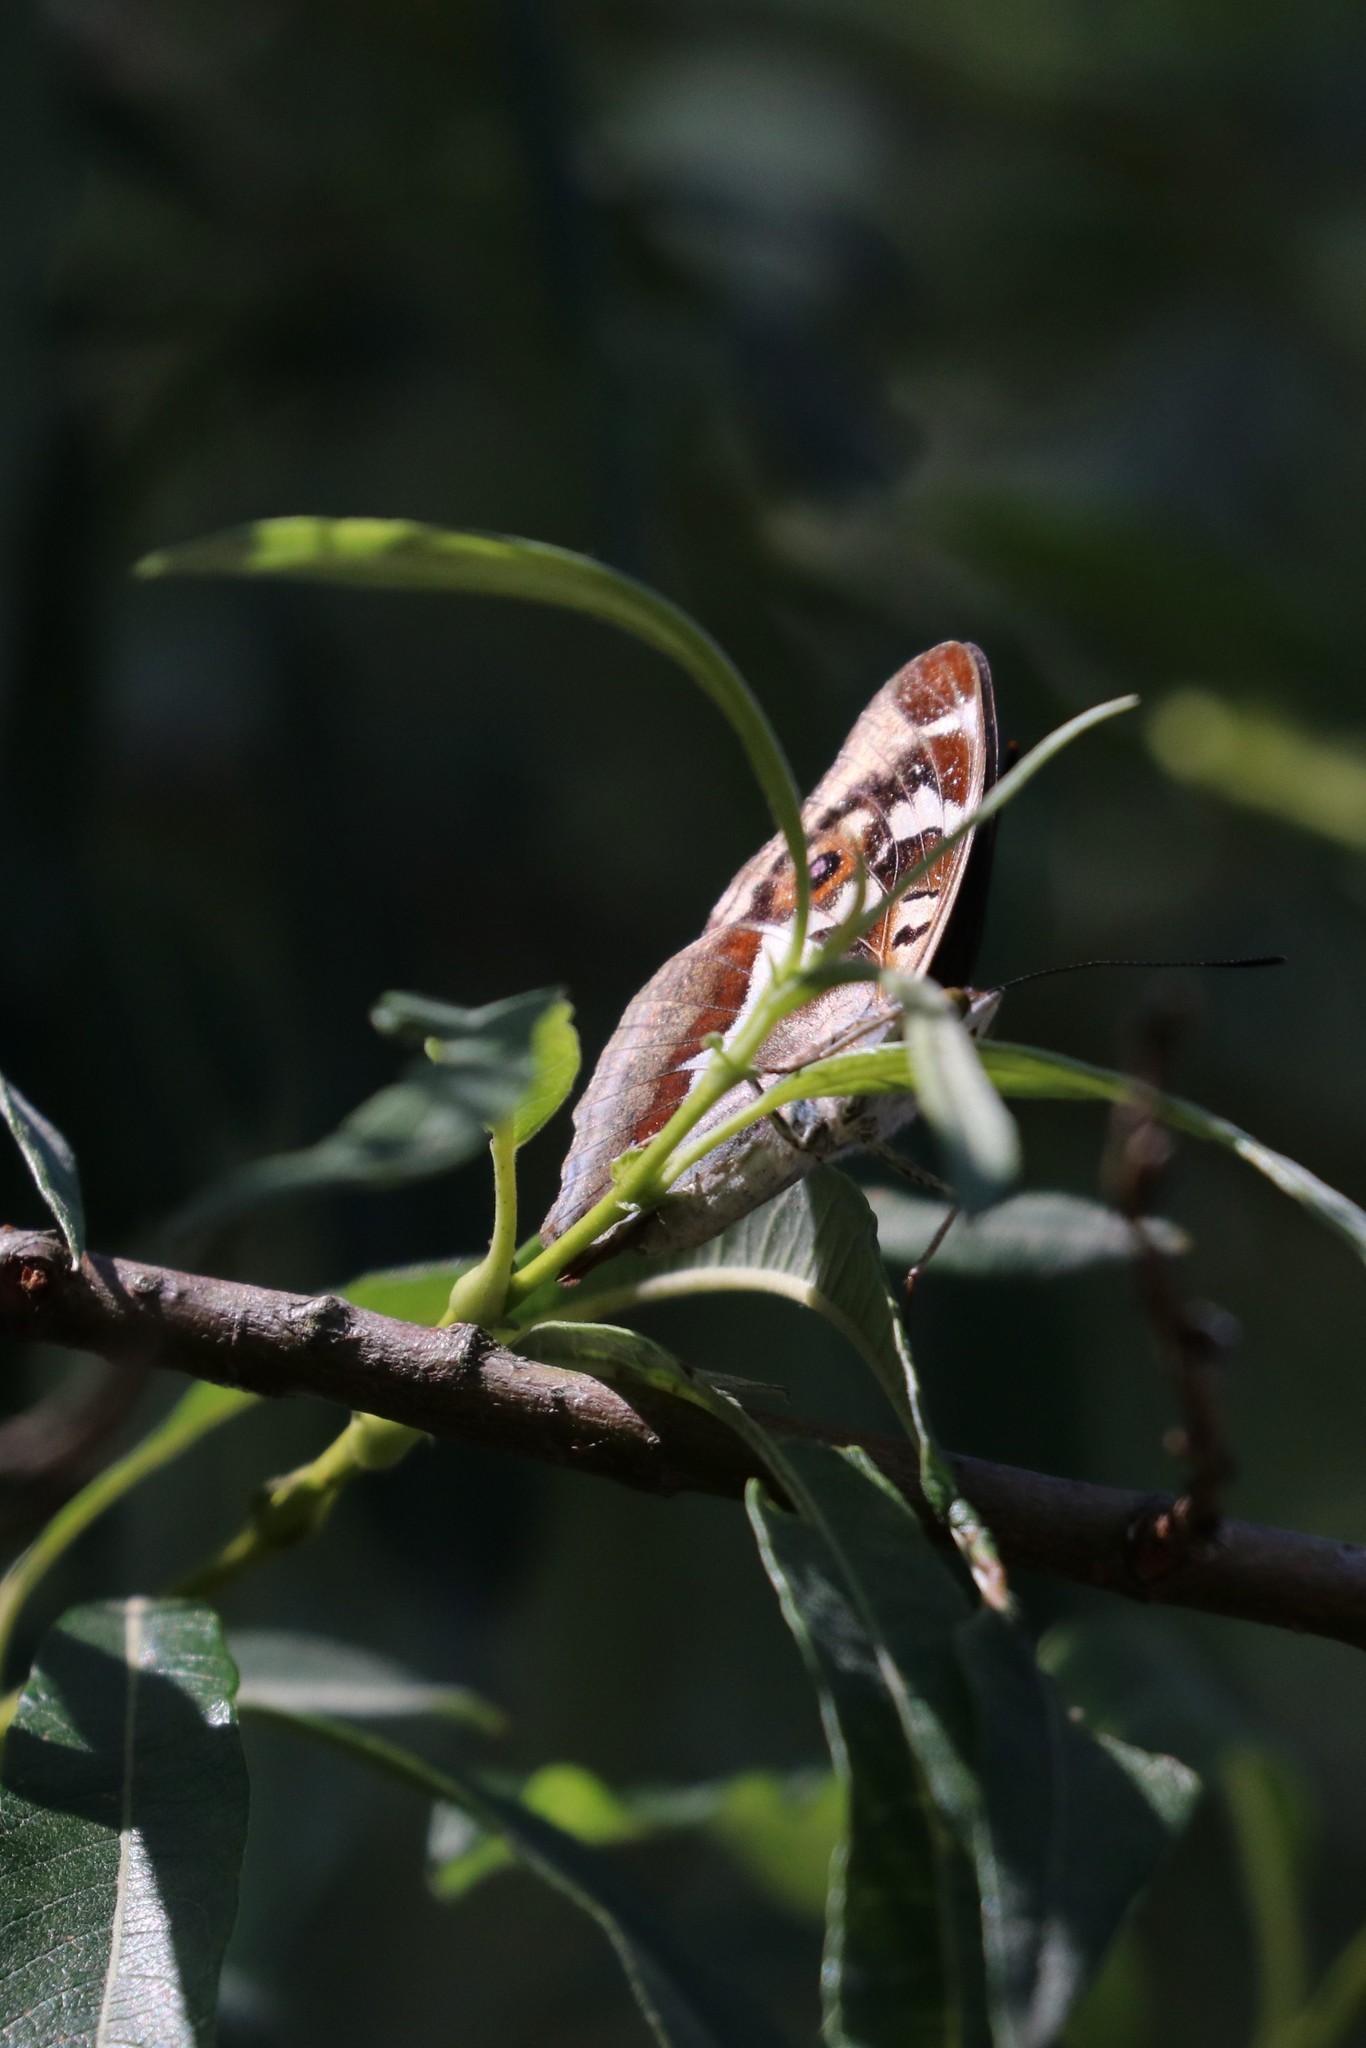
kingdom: Animalia
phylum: Arthropoda
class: Insecta
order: Lepidoptera
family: Nymphalidae
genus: Apatura
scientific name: Apatura iris
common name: Purple emperor
